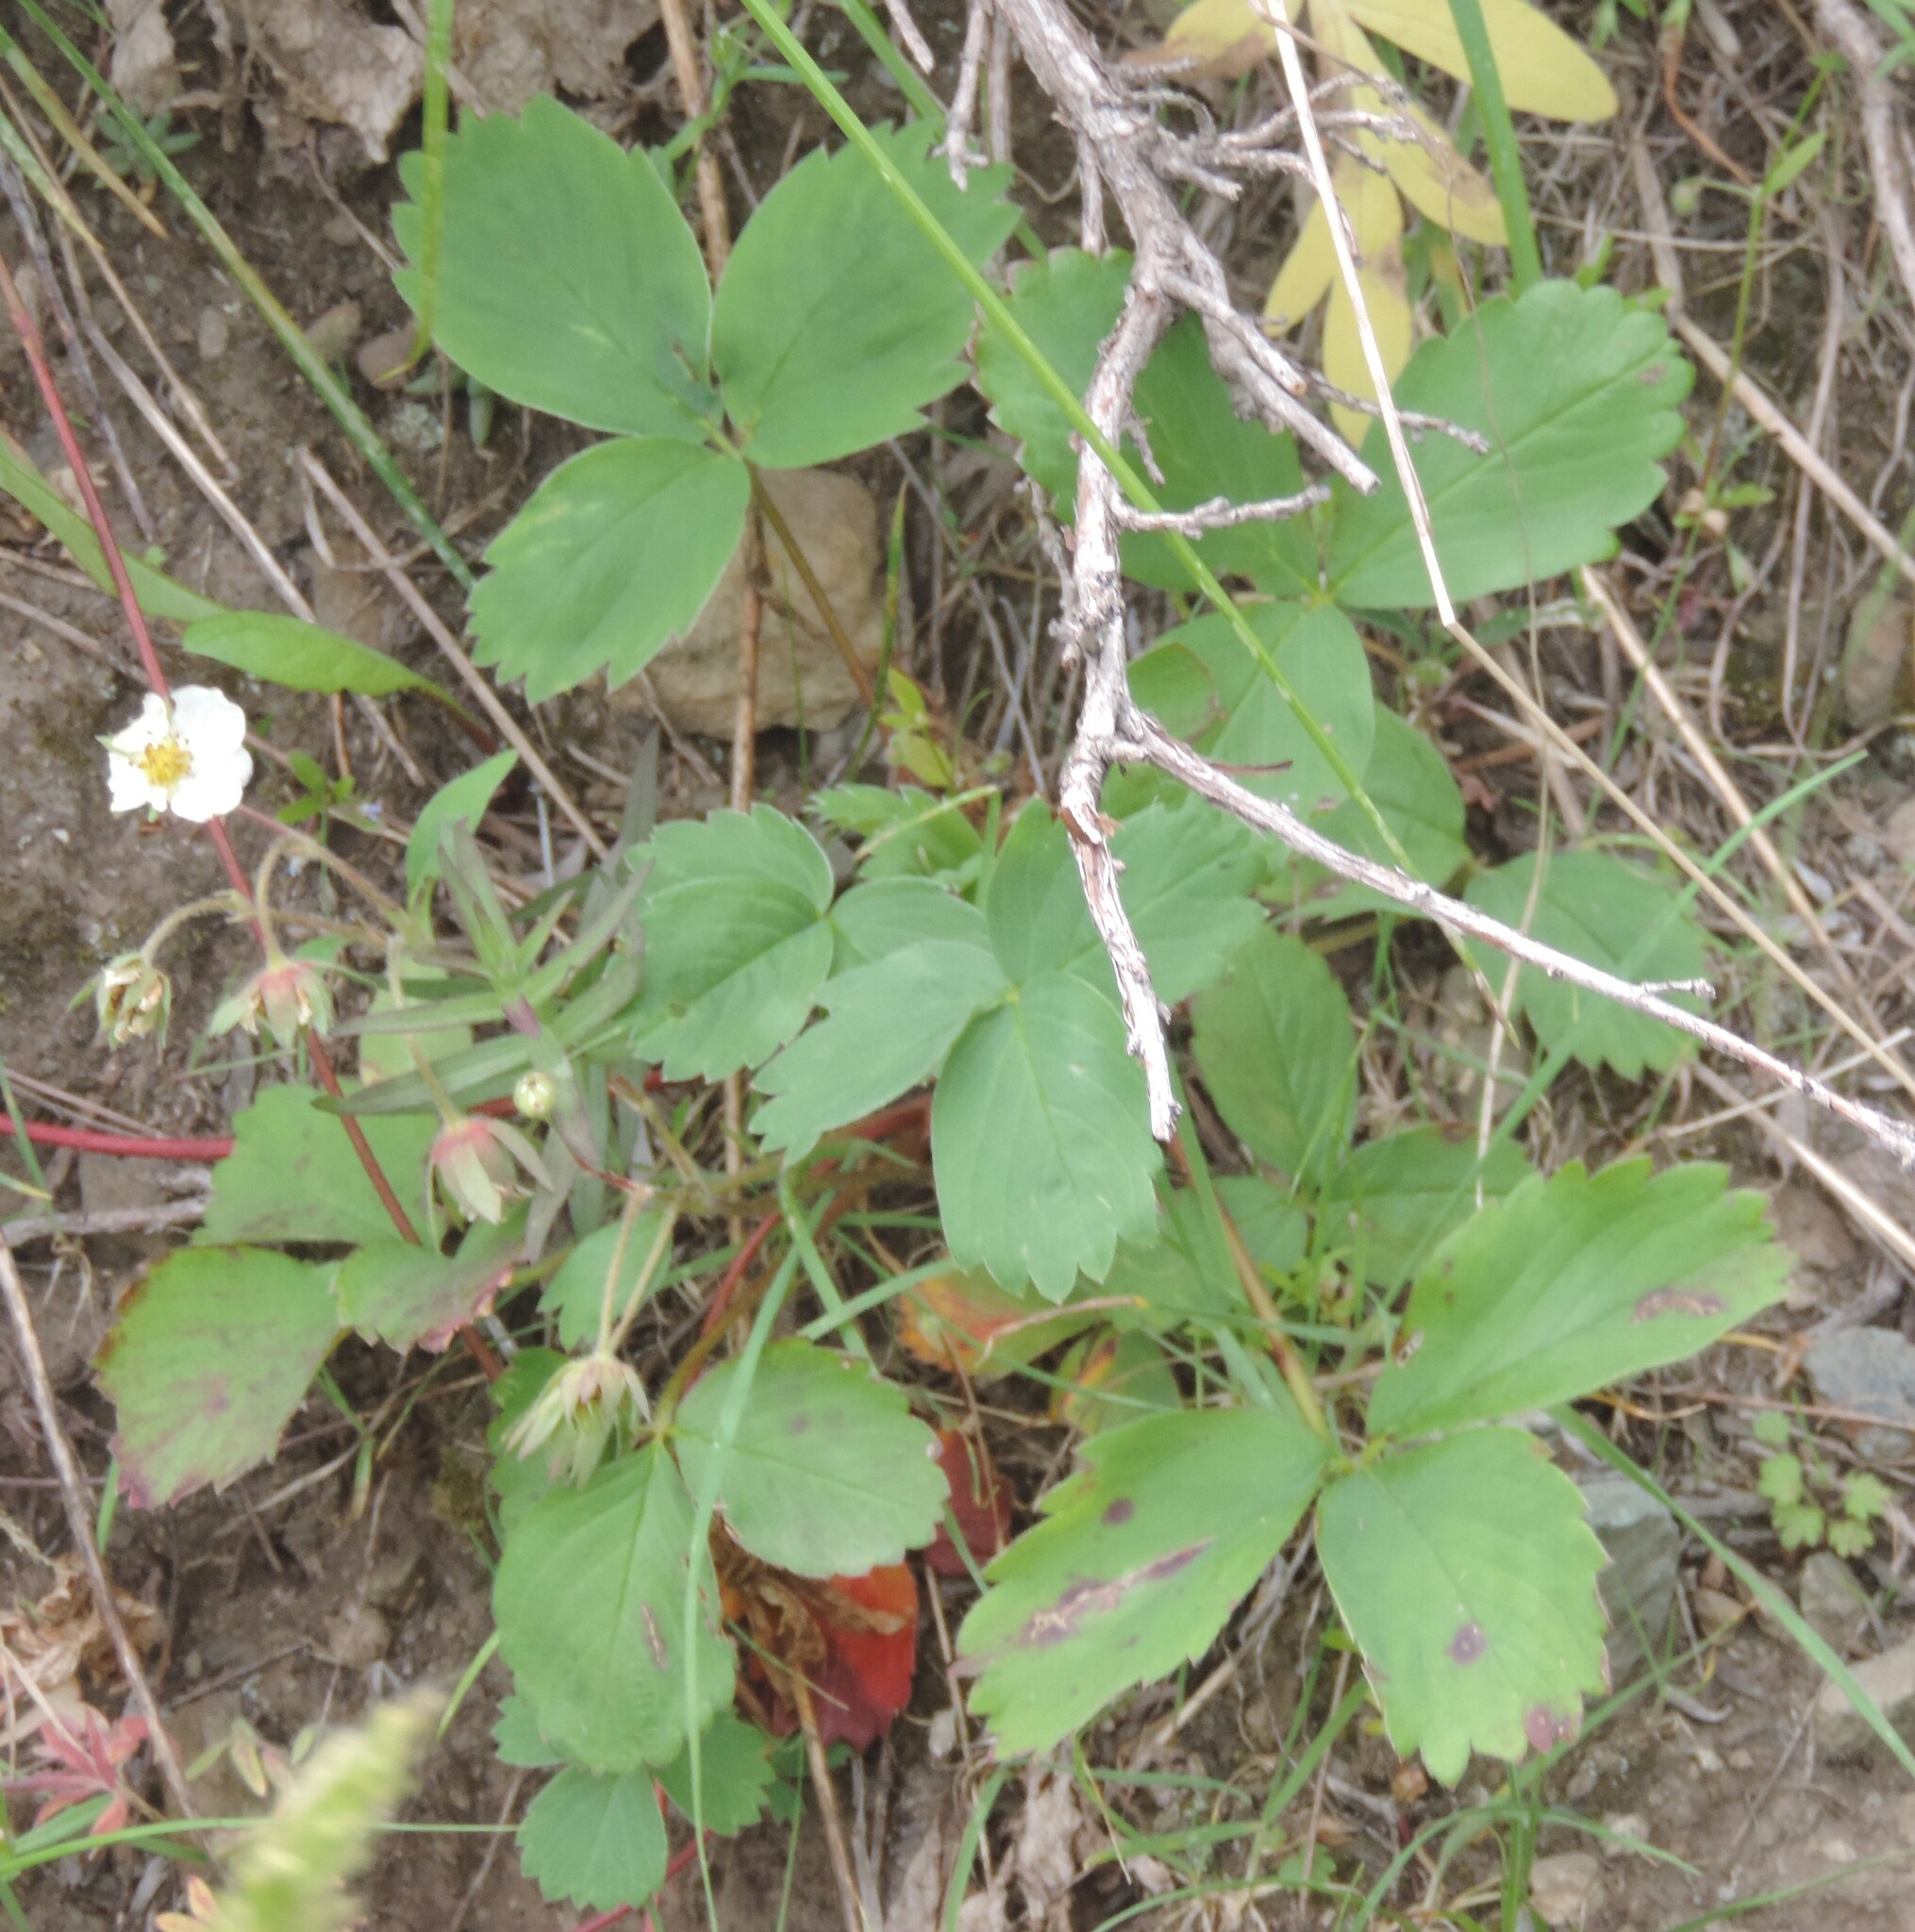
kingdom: Plantae
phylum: Tracheophyta
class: Magnoliopsida
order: Rosales
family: Rosaceae
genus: Fragaria
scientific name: Fragaria virginiana
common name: Thickleaved wild strawberry
